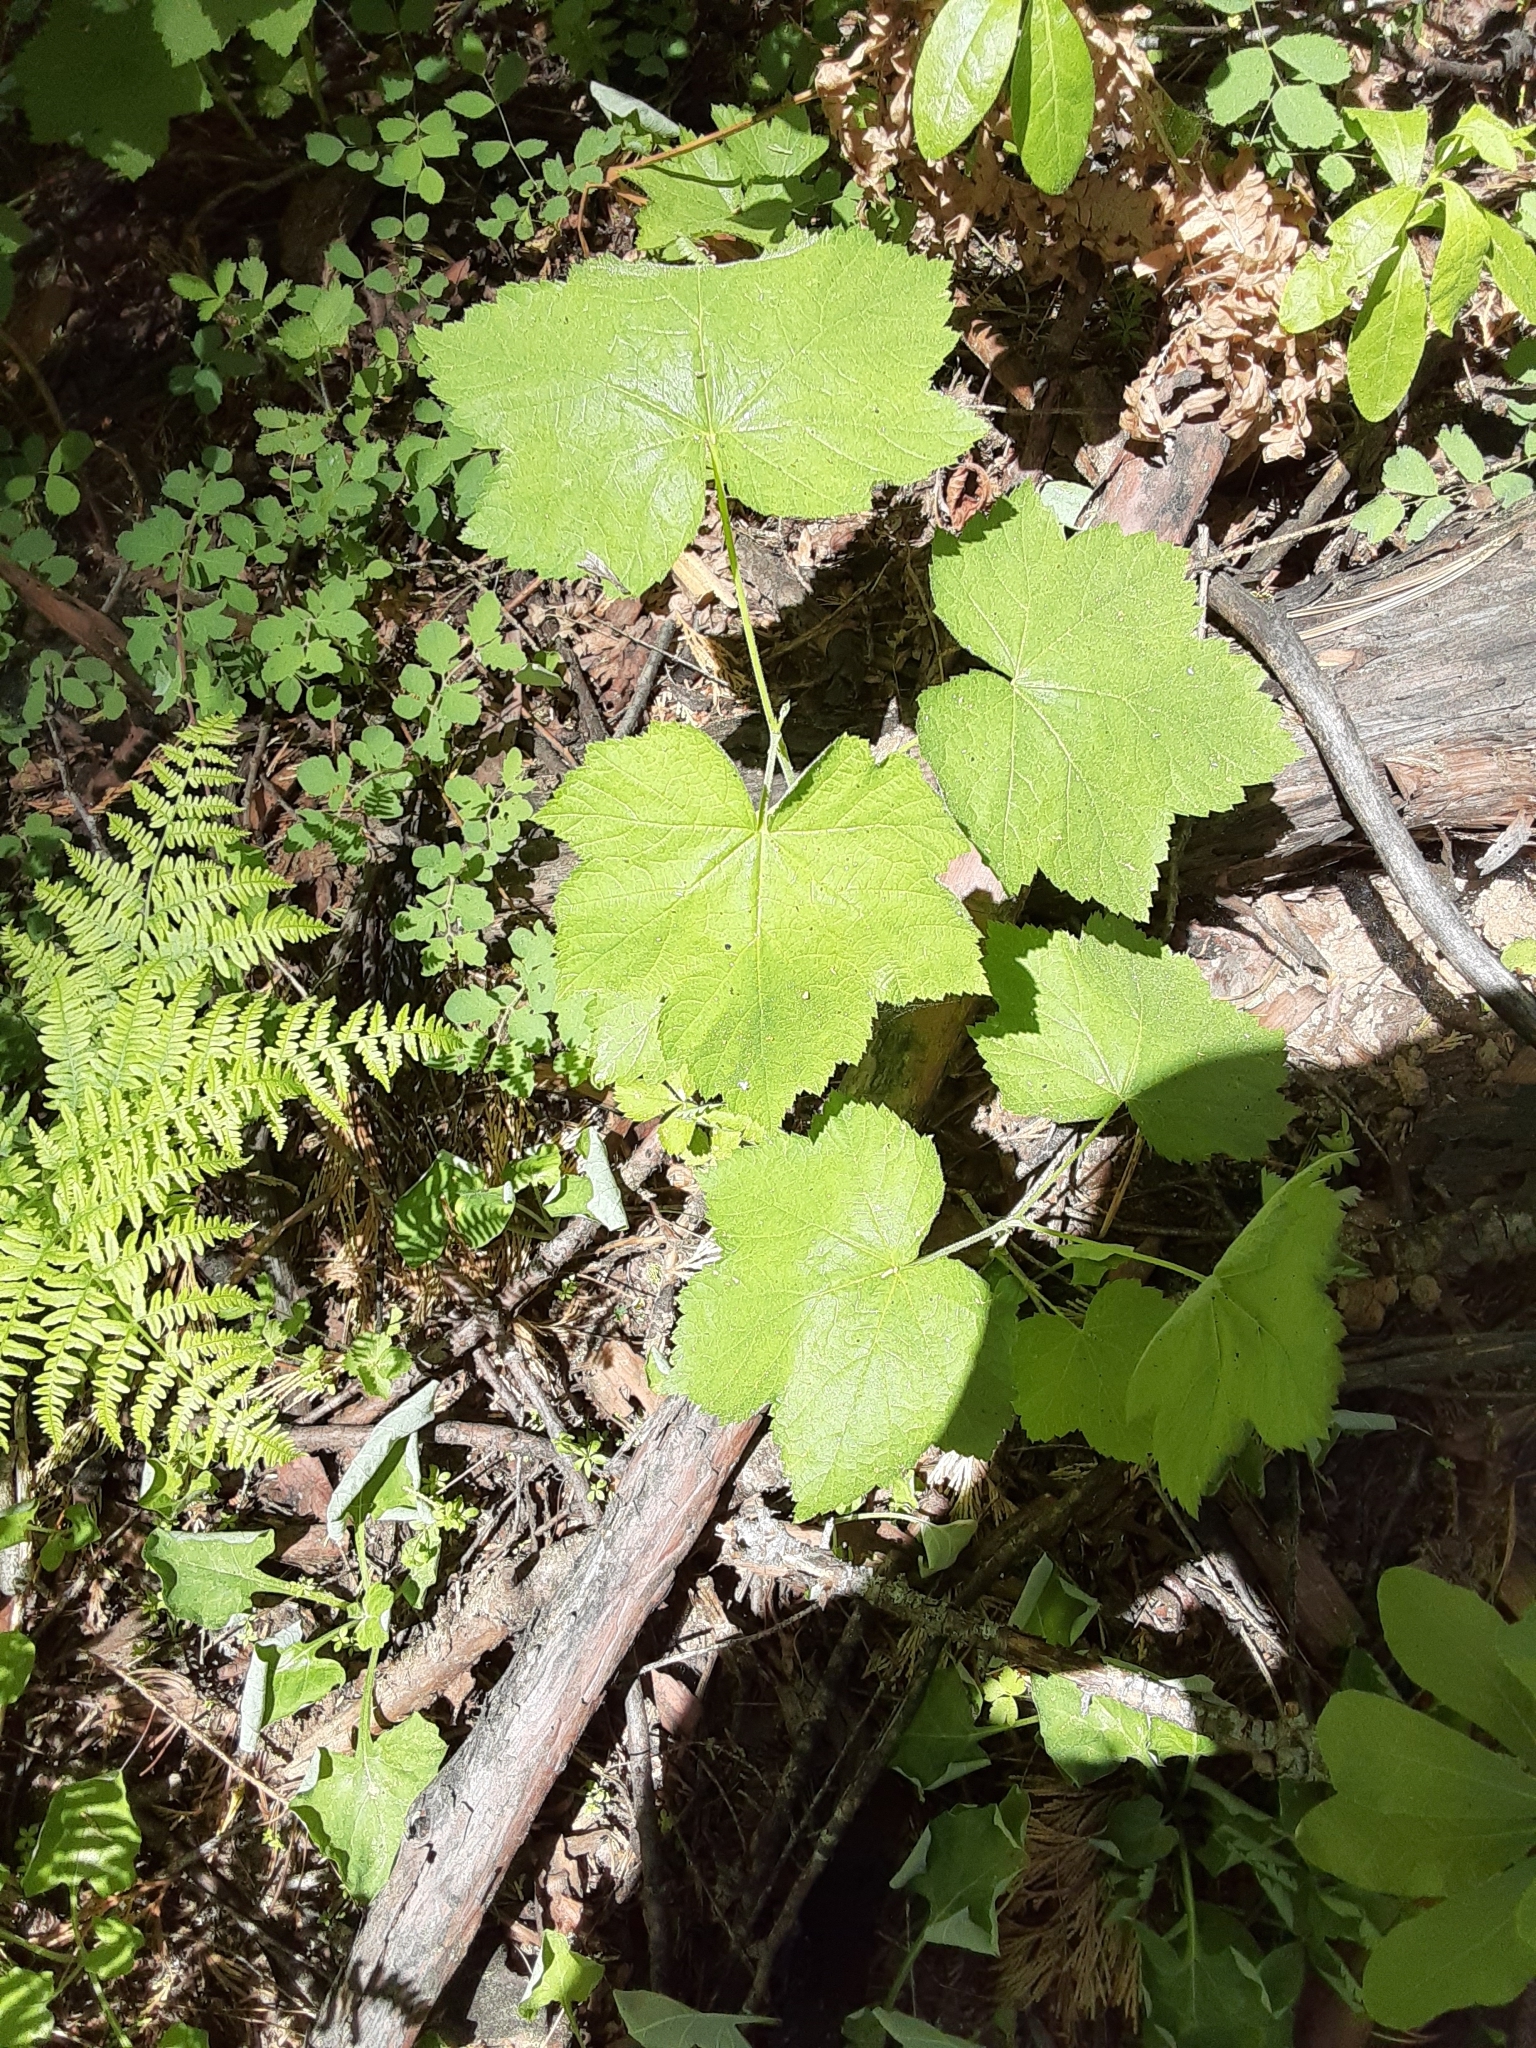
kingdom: Plantae
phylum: Tracheophyta
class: Magnoliopsida
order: Rosales
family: Rosaceae
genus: Rubus
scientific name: Rubus parviflorus
